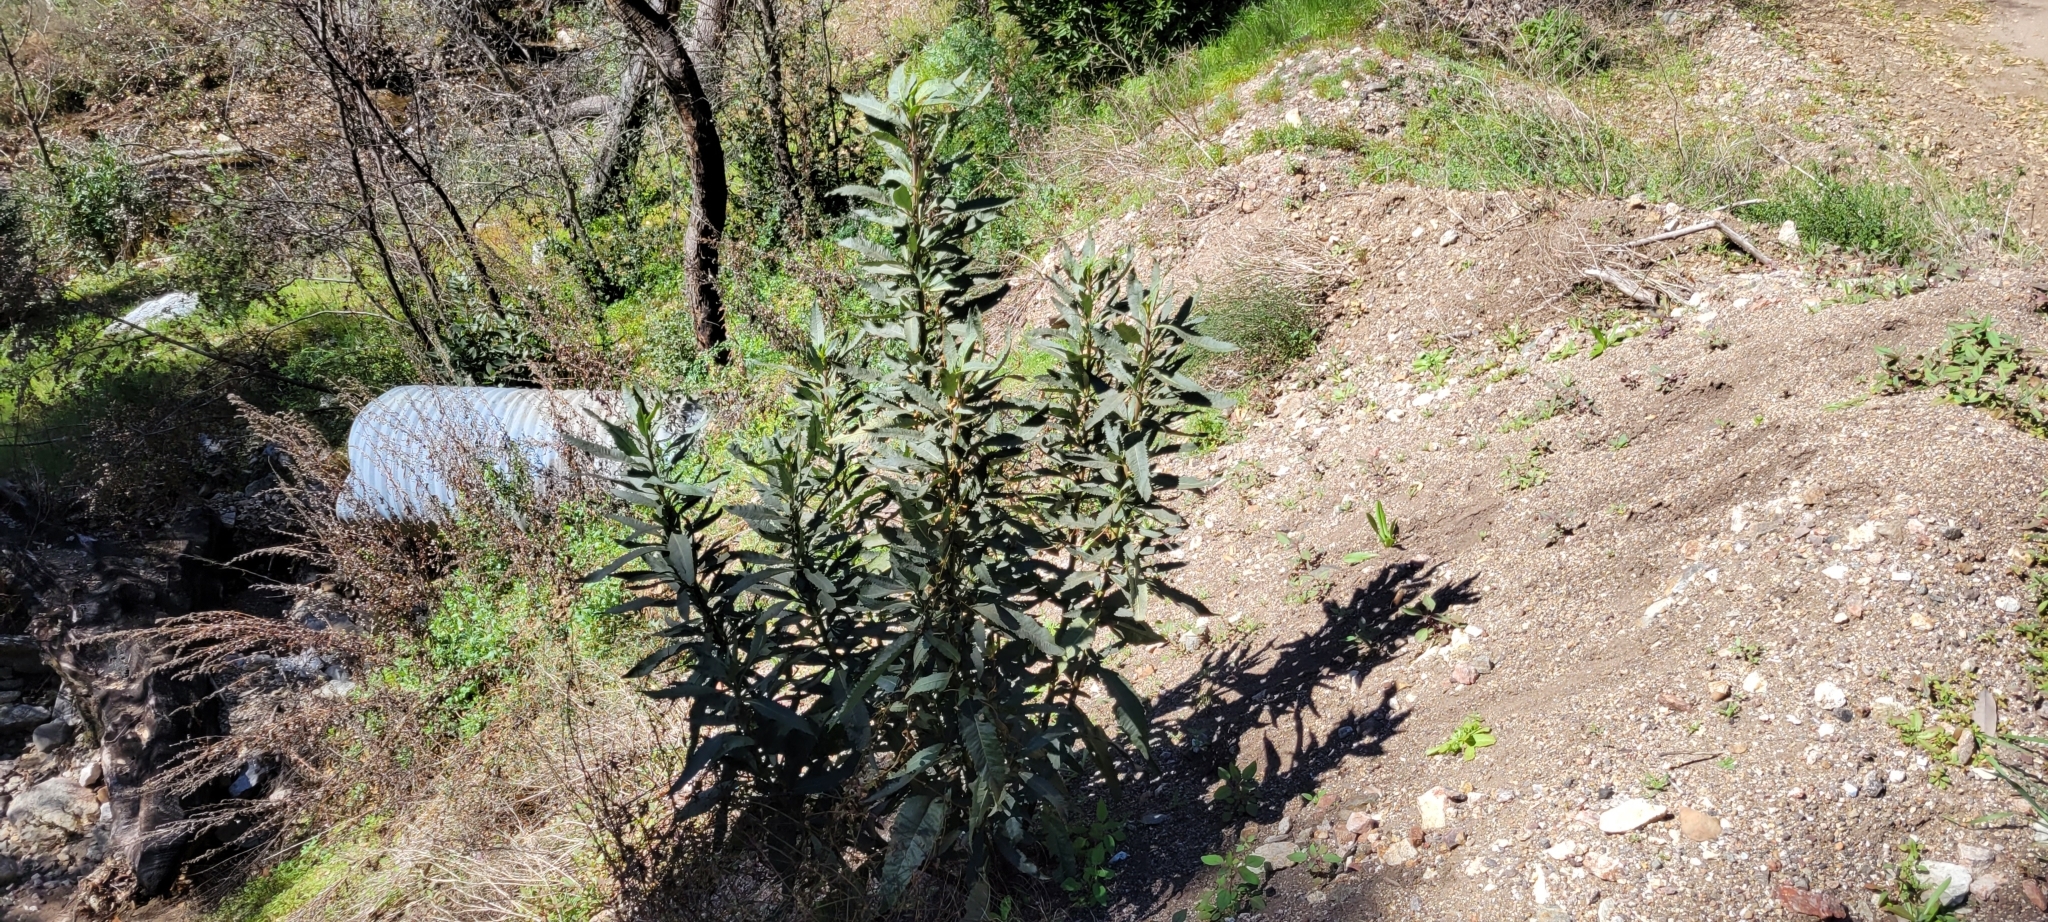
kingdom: Plantae
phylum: Tracheophyta
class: Magnoliopsida
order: Boraginales
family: Namaceae
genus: Eriodictyon
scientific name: Eriodictyon californicum
